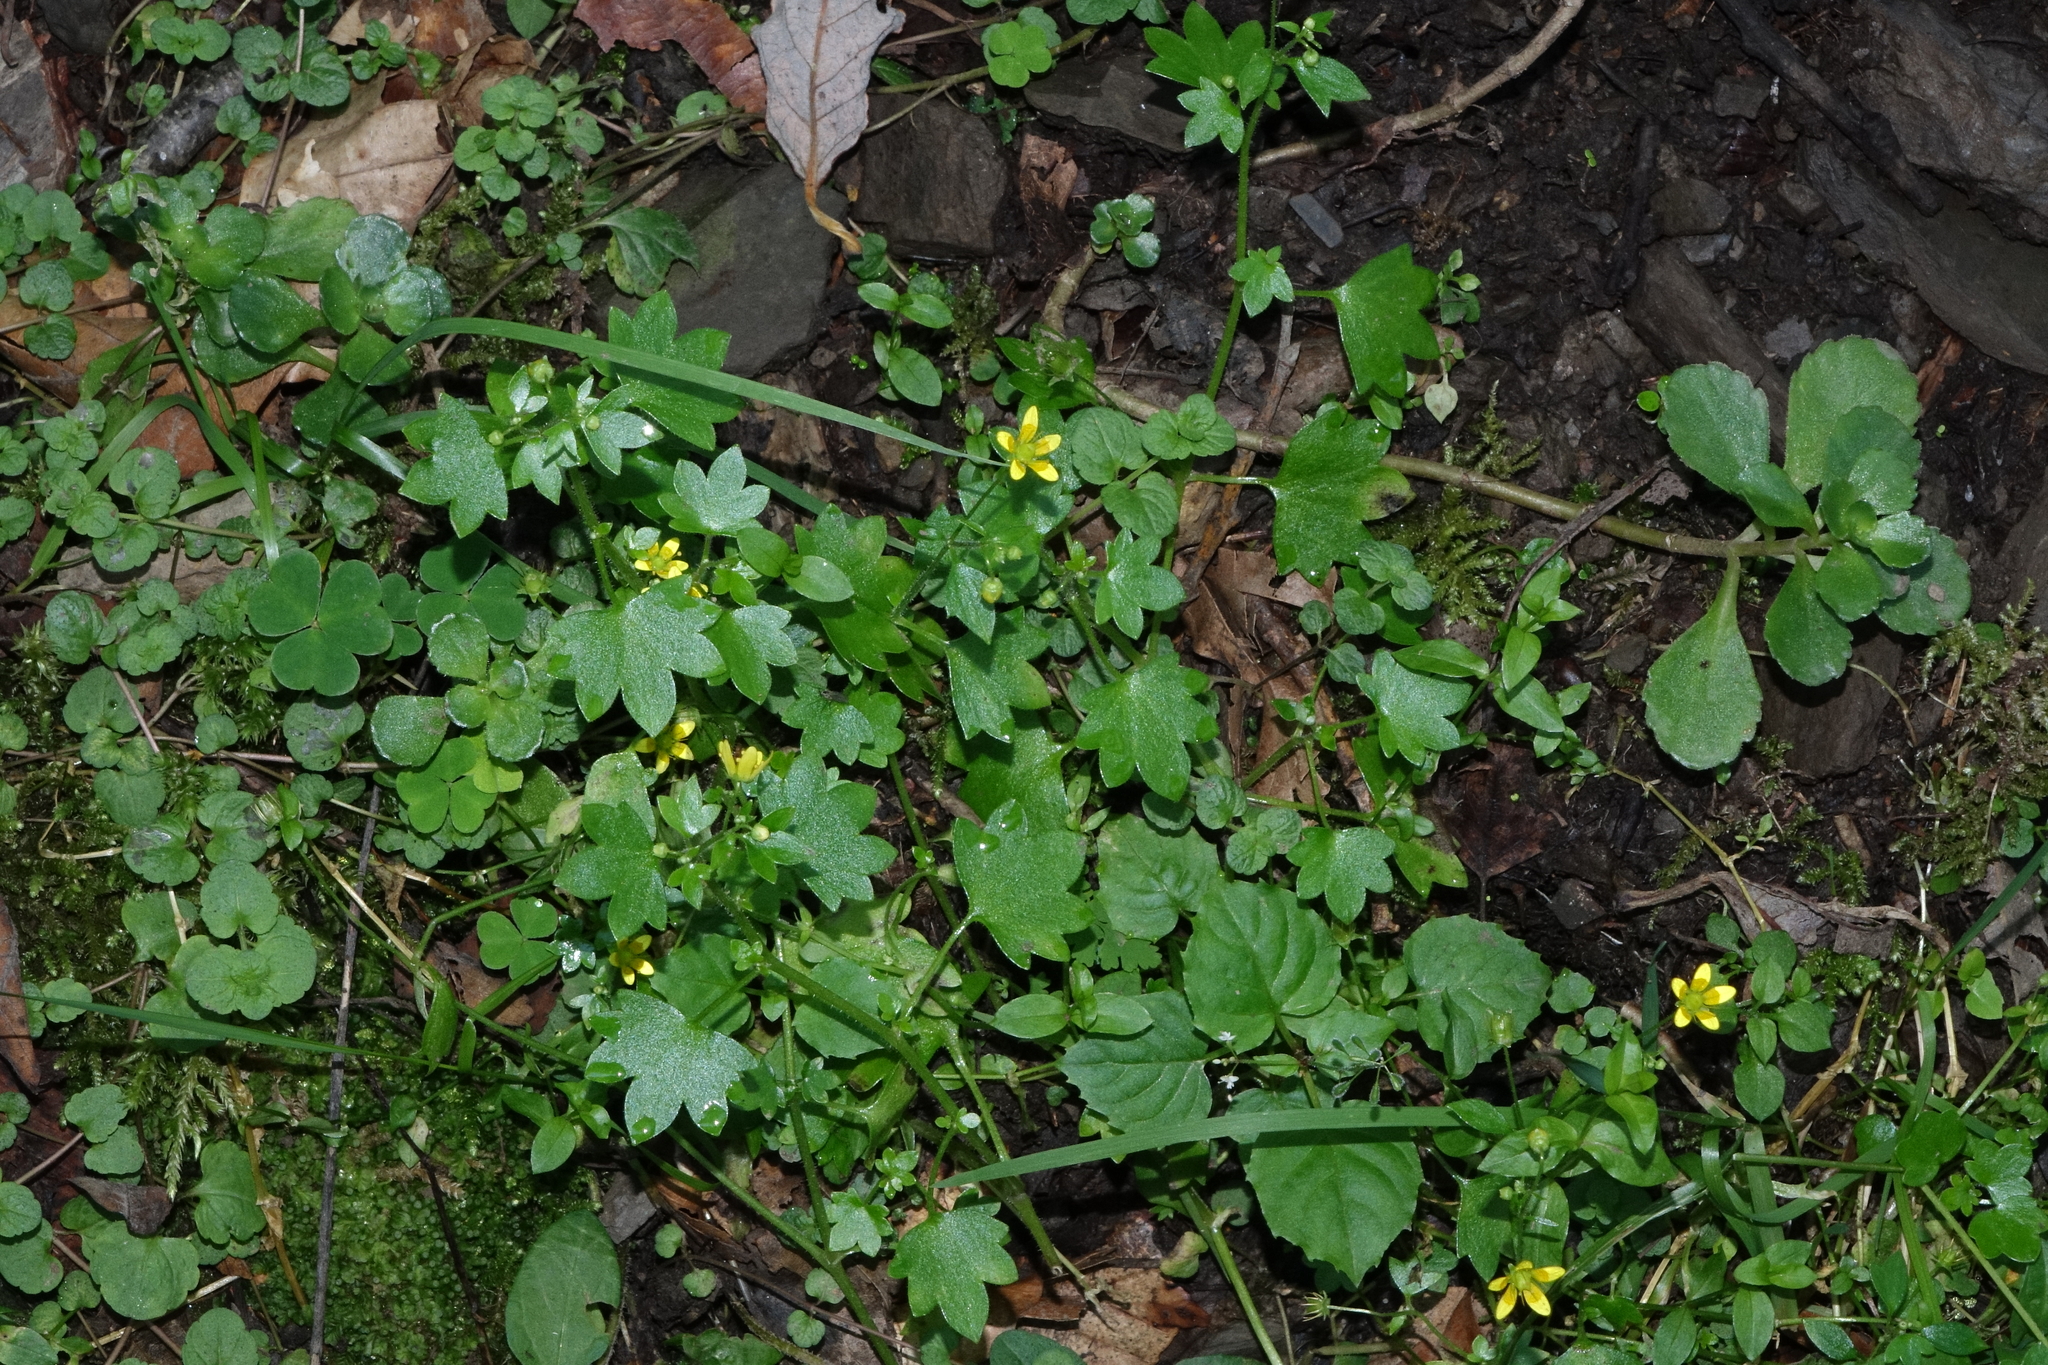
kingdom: Plantae
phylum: Tracheophyta
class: Magnoliopsida
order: Saxifragales
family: Saxifragaceae
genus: Saxifraga
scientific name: Saxifraga cymbalaria
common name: Celandine saxifrage
